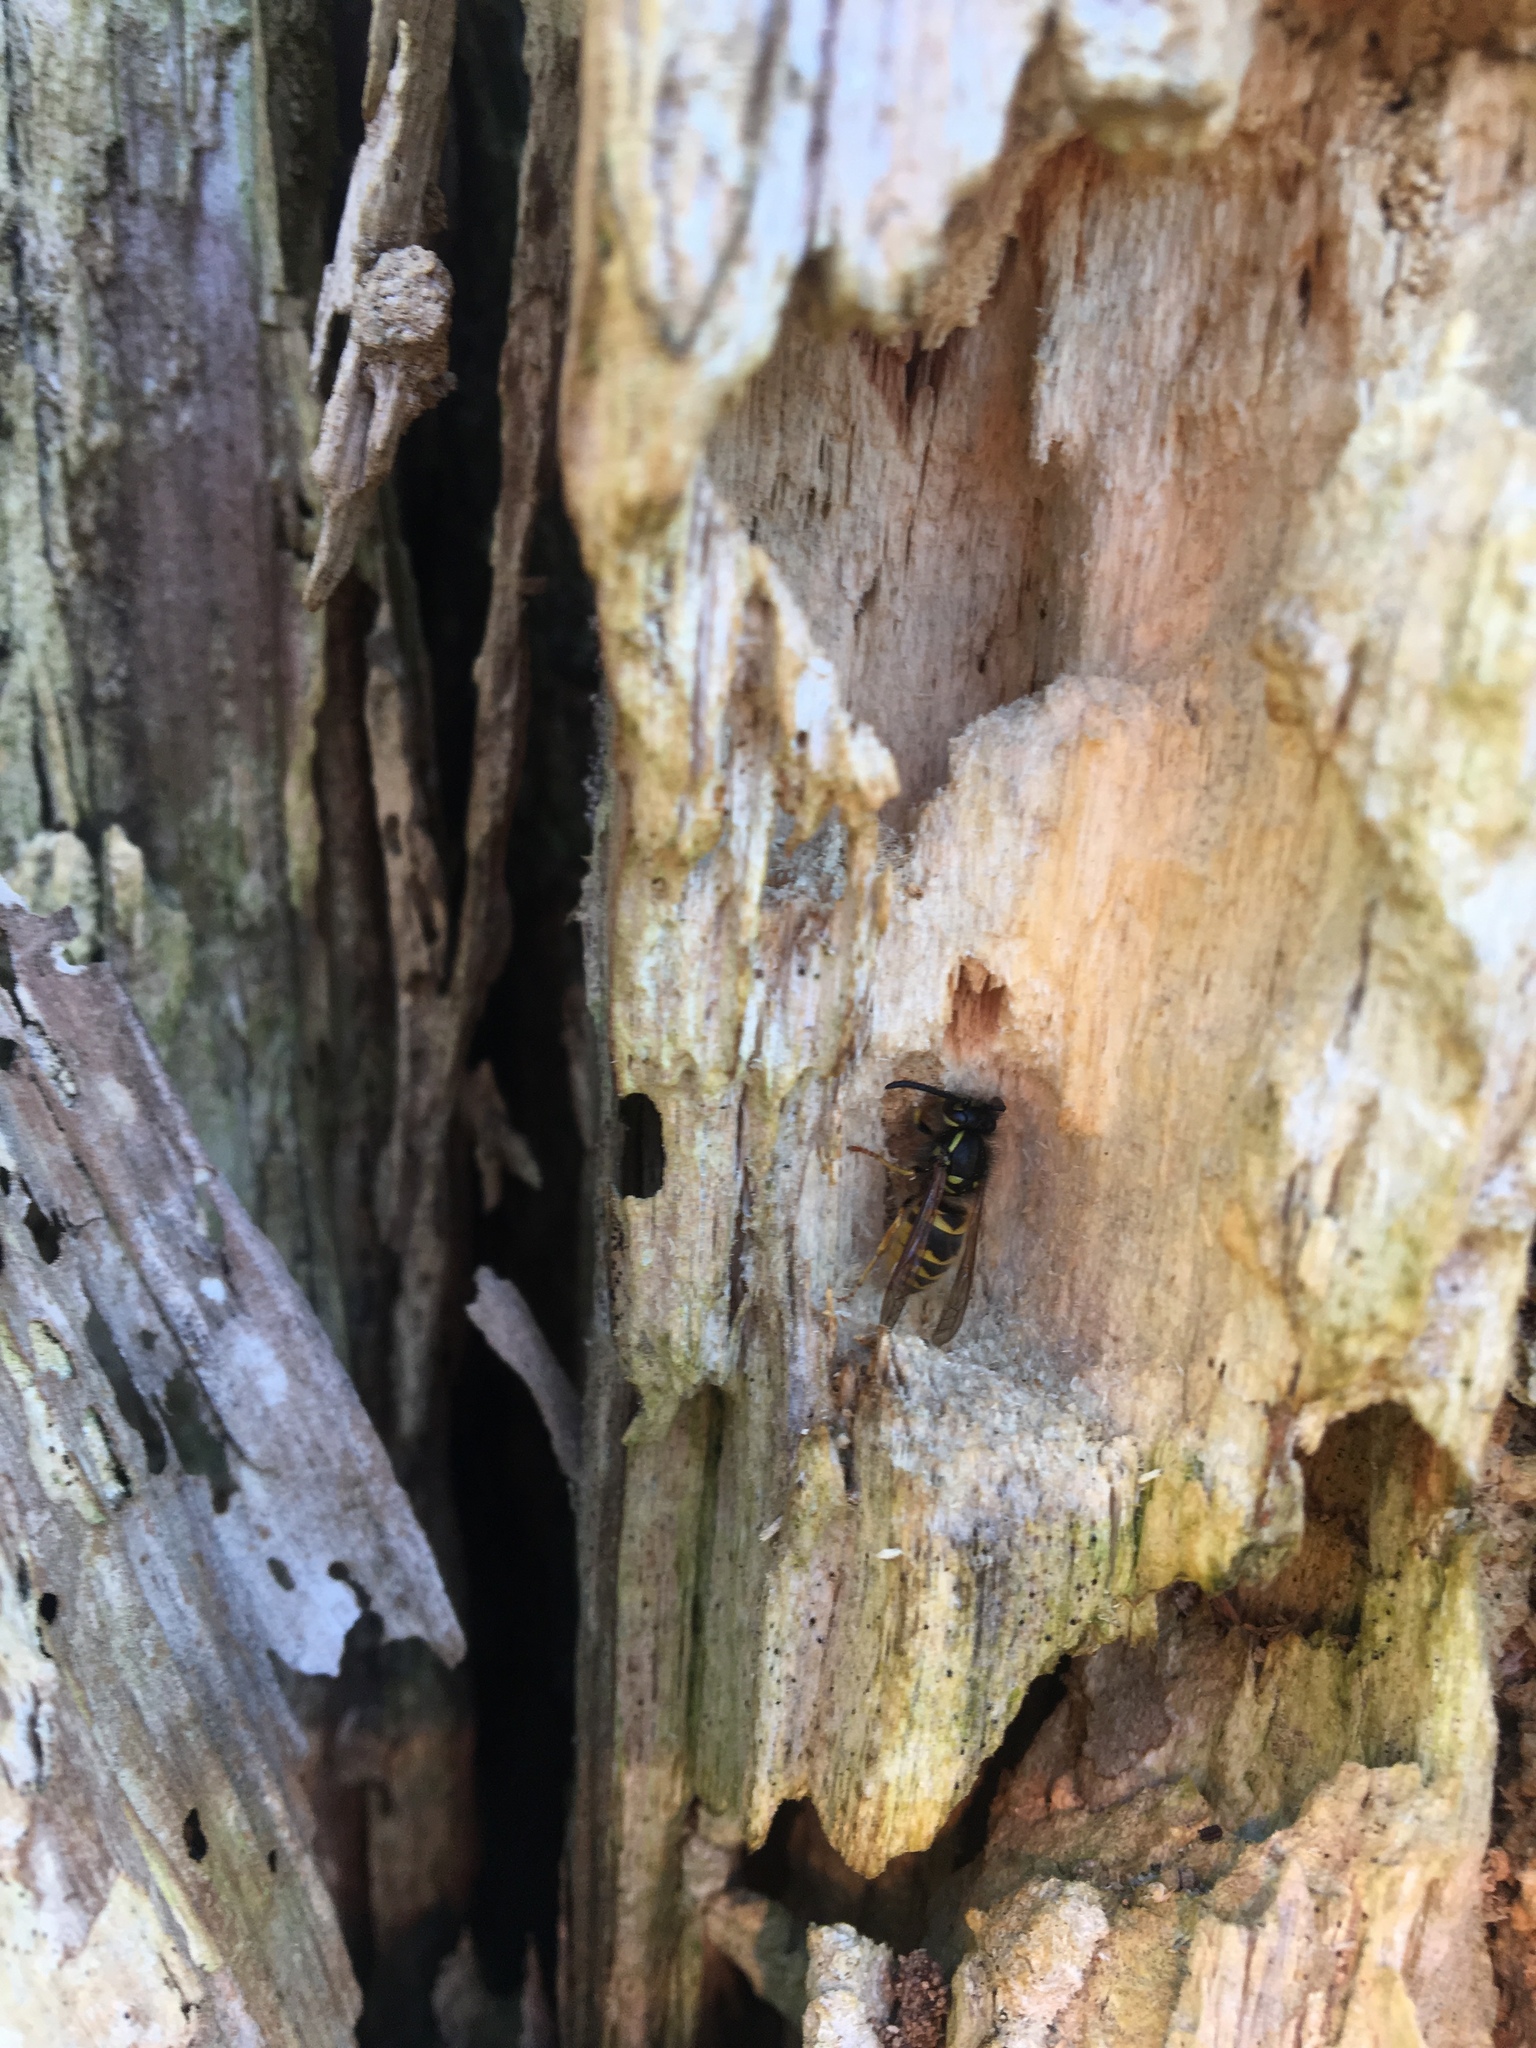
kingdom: Animalia
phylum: Arthropoda
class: Insecta
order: Hymenoptera
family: Vespidae
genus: Vespula
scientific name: Vespula vulgaris
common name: Common wasp
